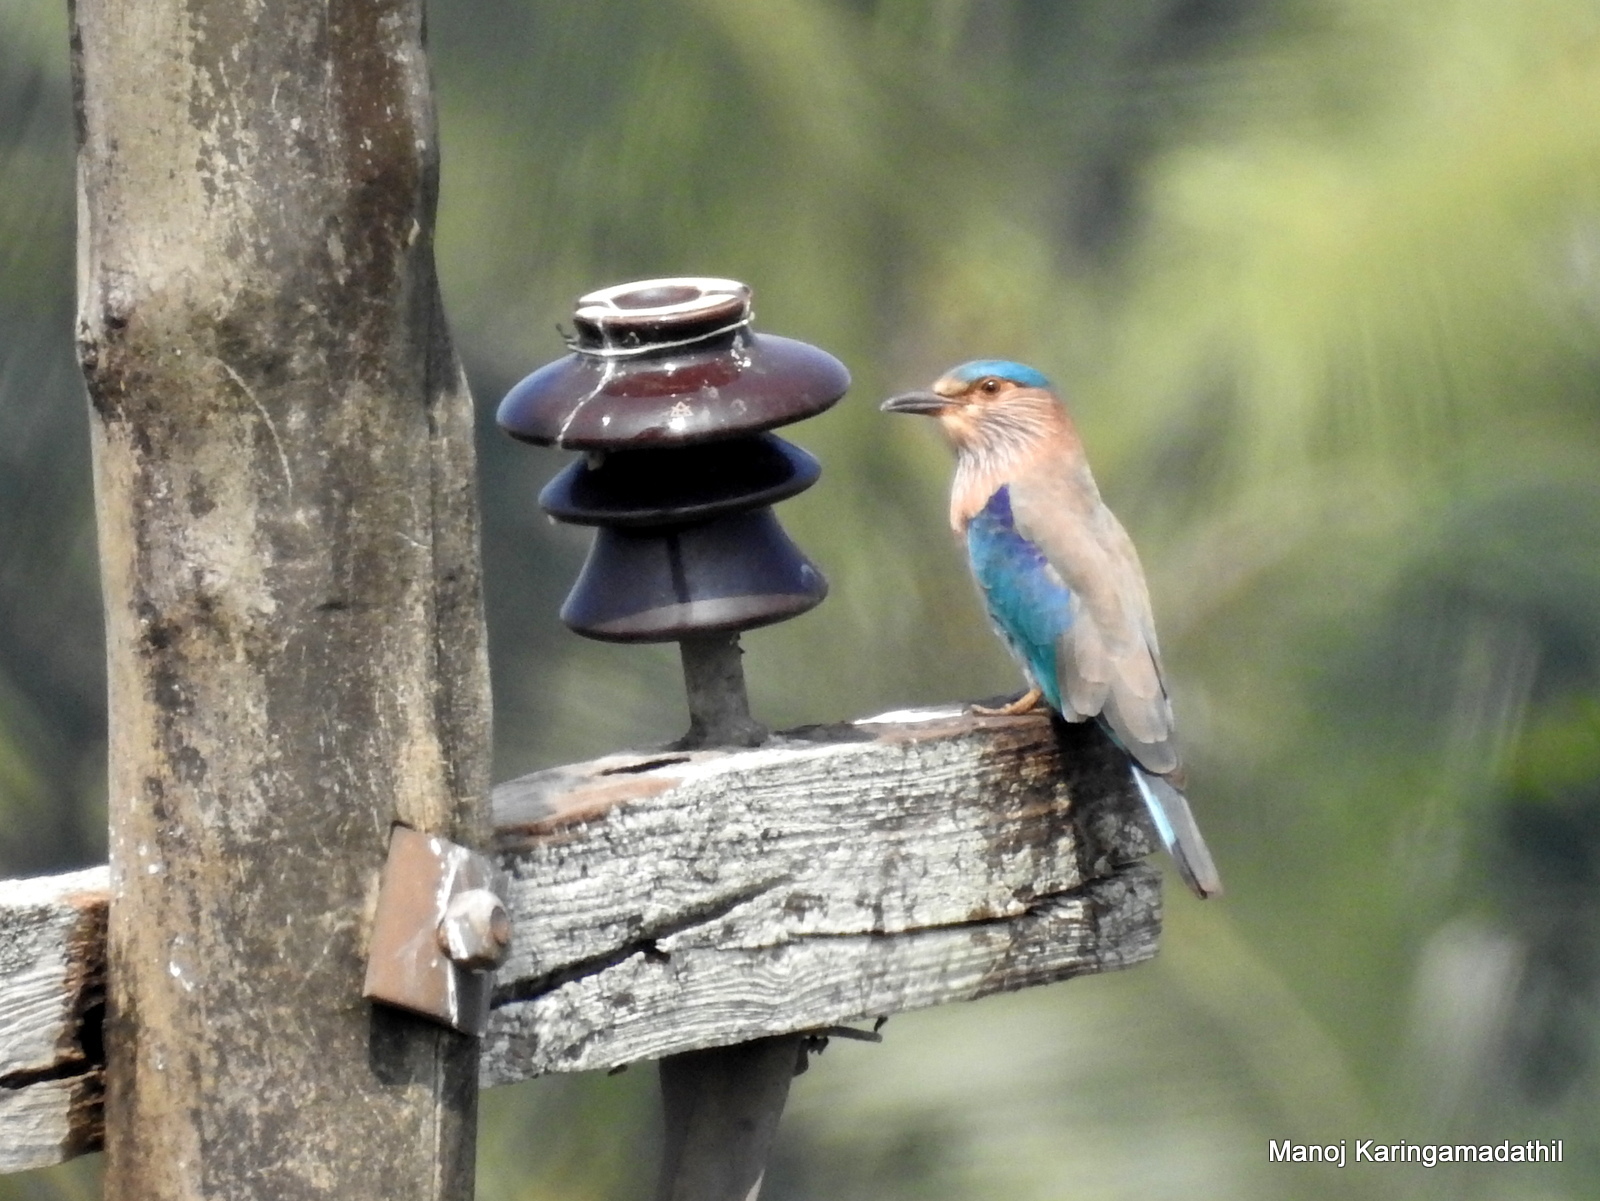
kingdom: Animalia
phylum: Chordata
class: Aves
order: Coraciiformes
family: Coraciidae
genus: Coracias
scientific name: Coracias benghalensis
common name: Indian roller
